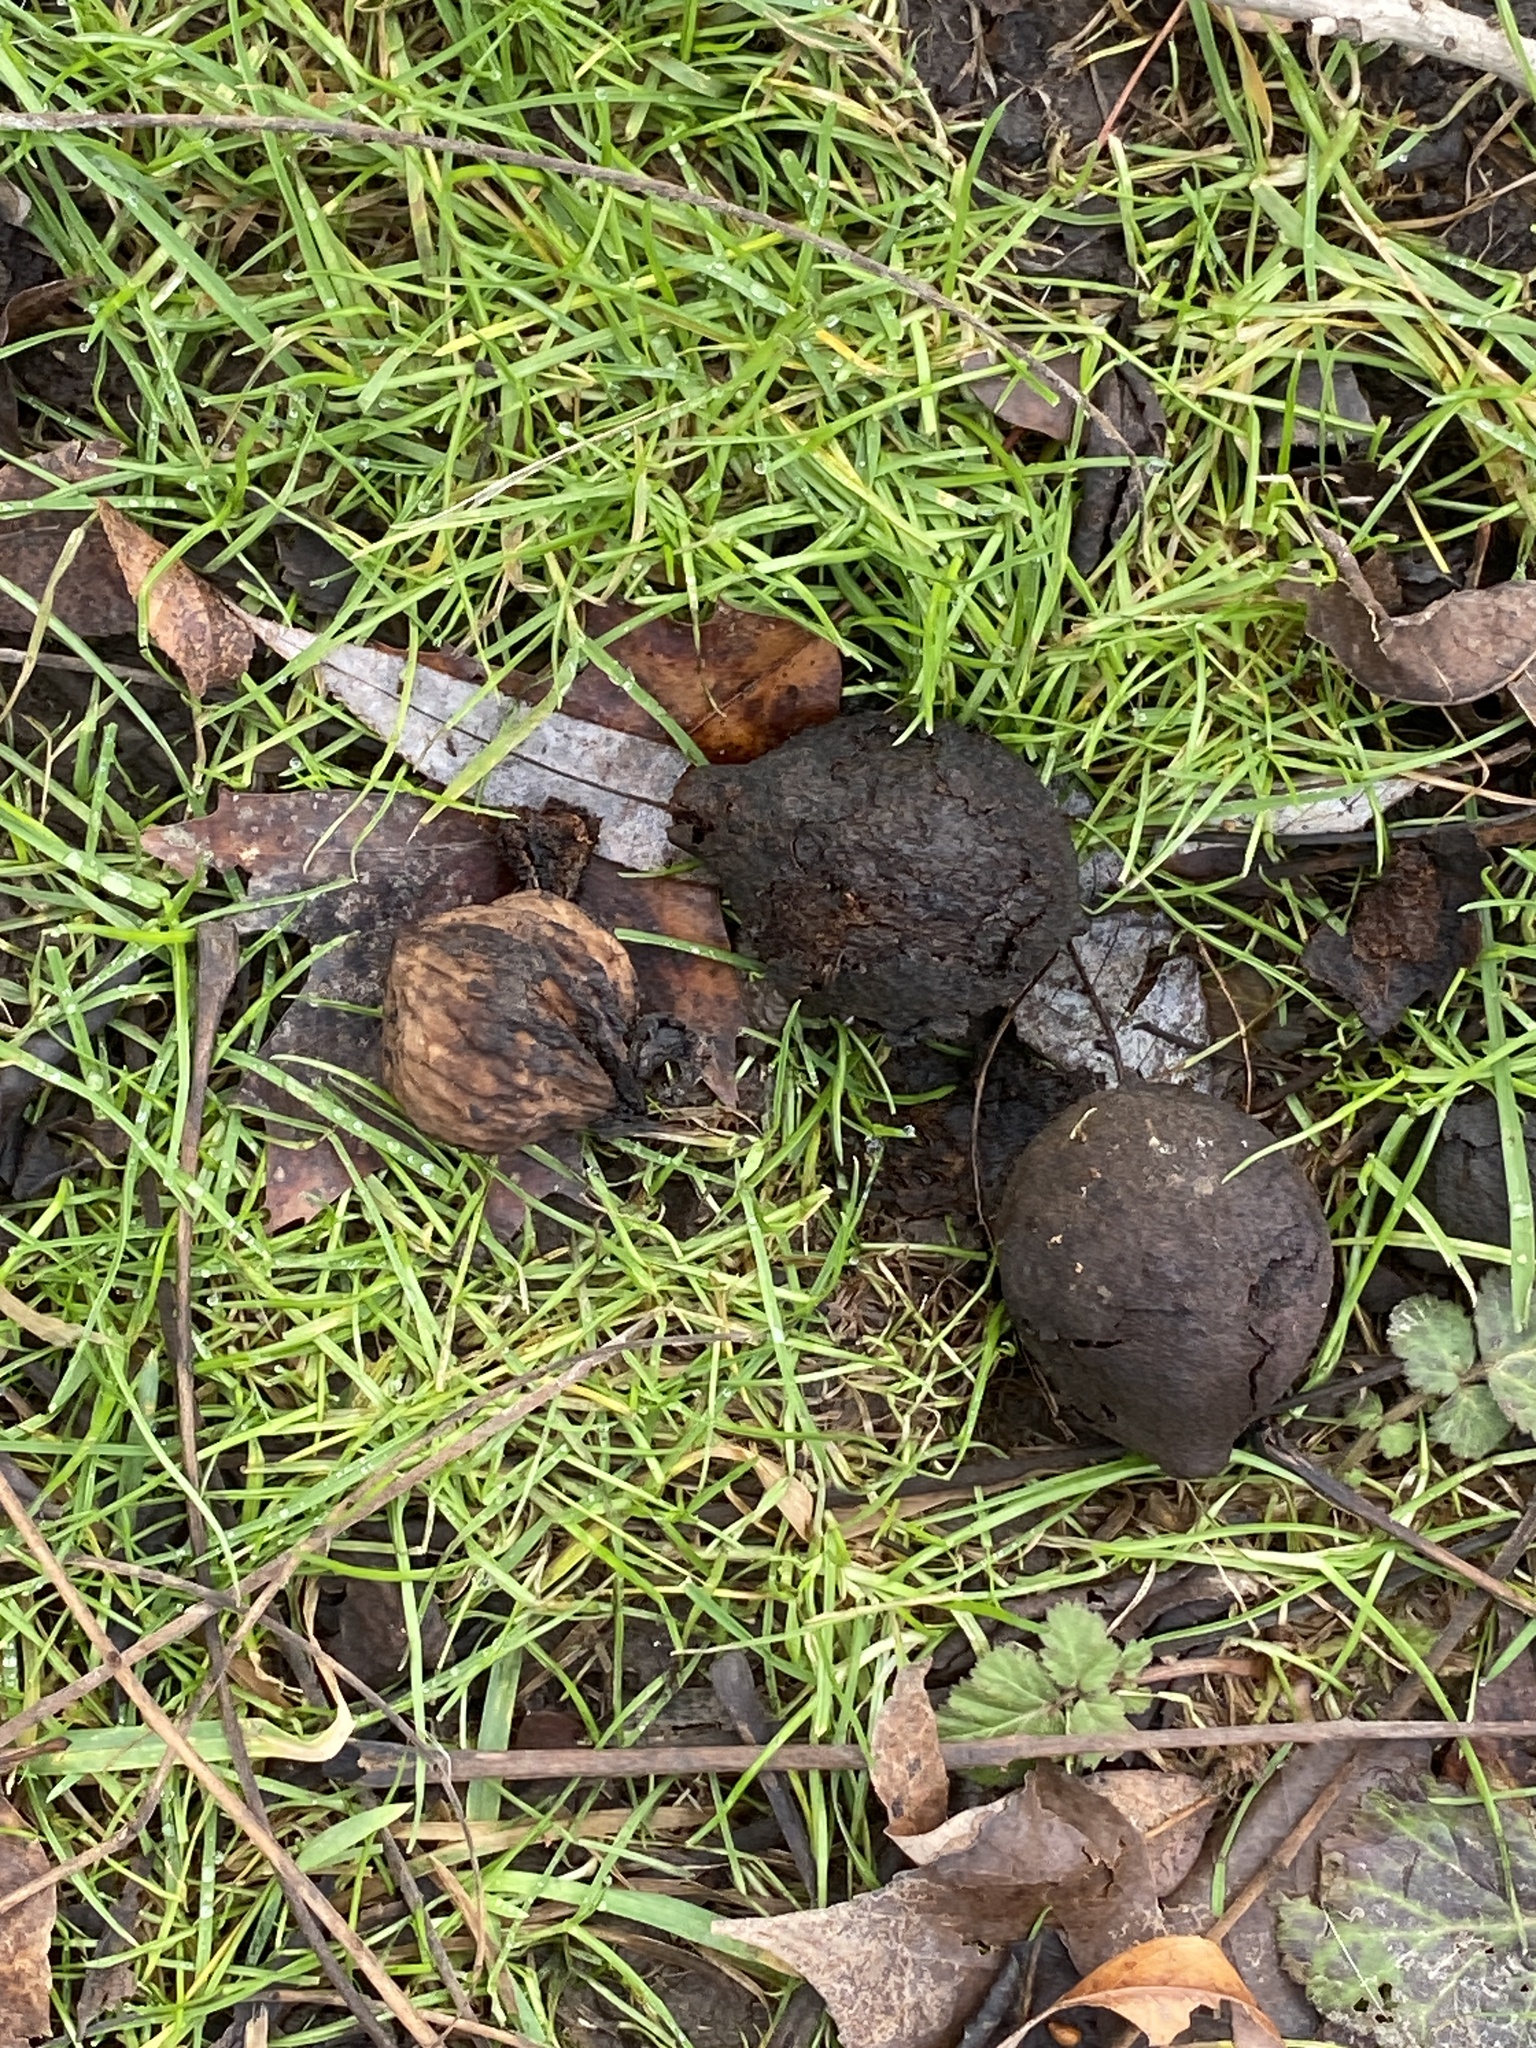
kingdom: Plantae
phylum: Tracheophyta
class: Magnoliopsida
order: Fagales
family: Juglandaceae
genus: Juglans
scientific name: Juglans nigra
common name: Black walnut
